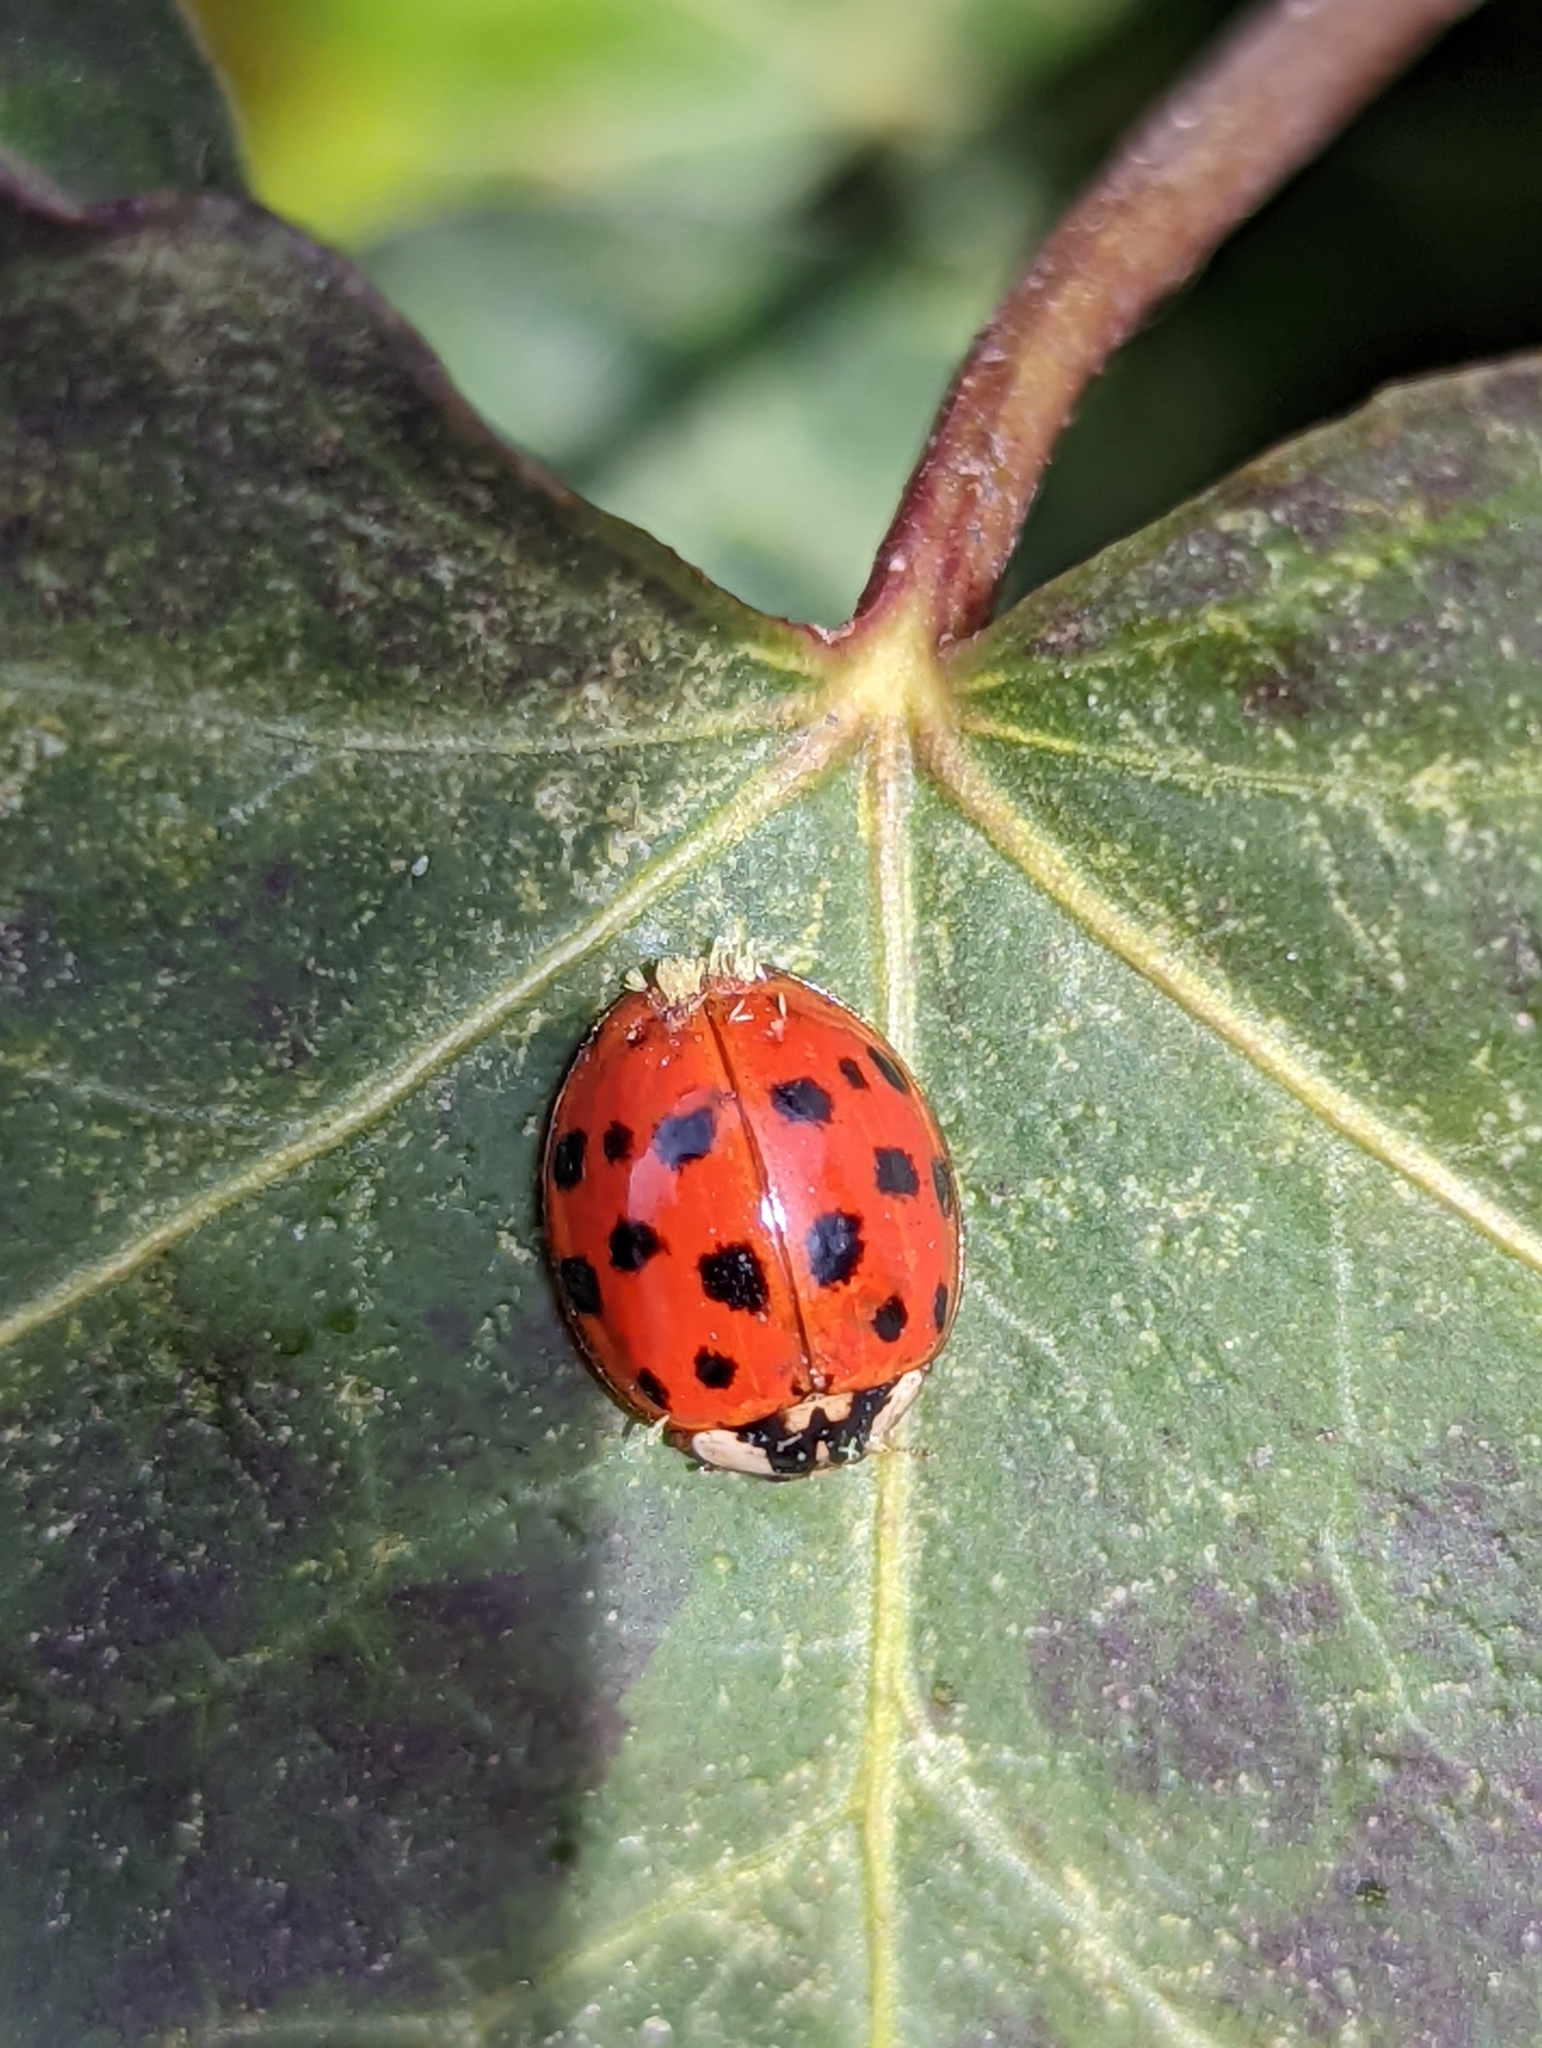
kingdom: Animalia
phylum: Arthropoda
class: Insecta
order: Coleoptera
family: Coccinellidae
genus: Harmonia
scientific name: Harmonia axyridis
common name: Harlequin ladybird
